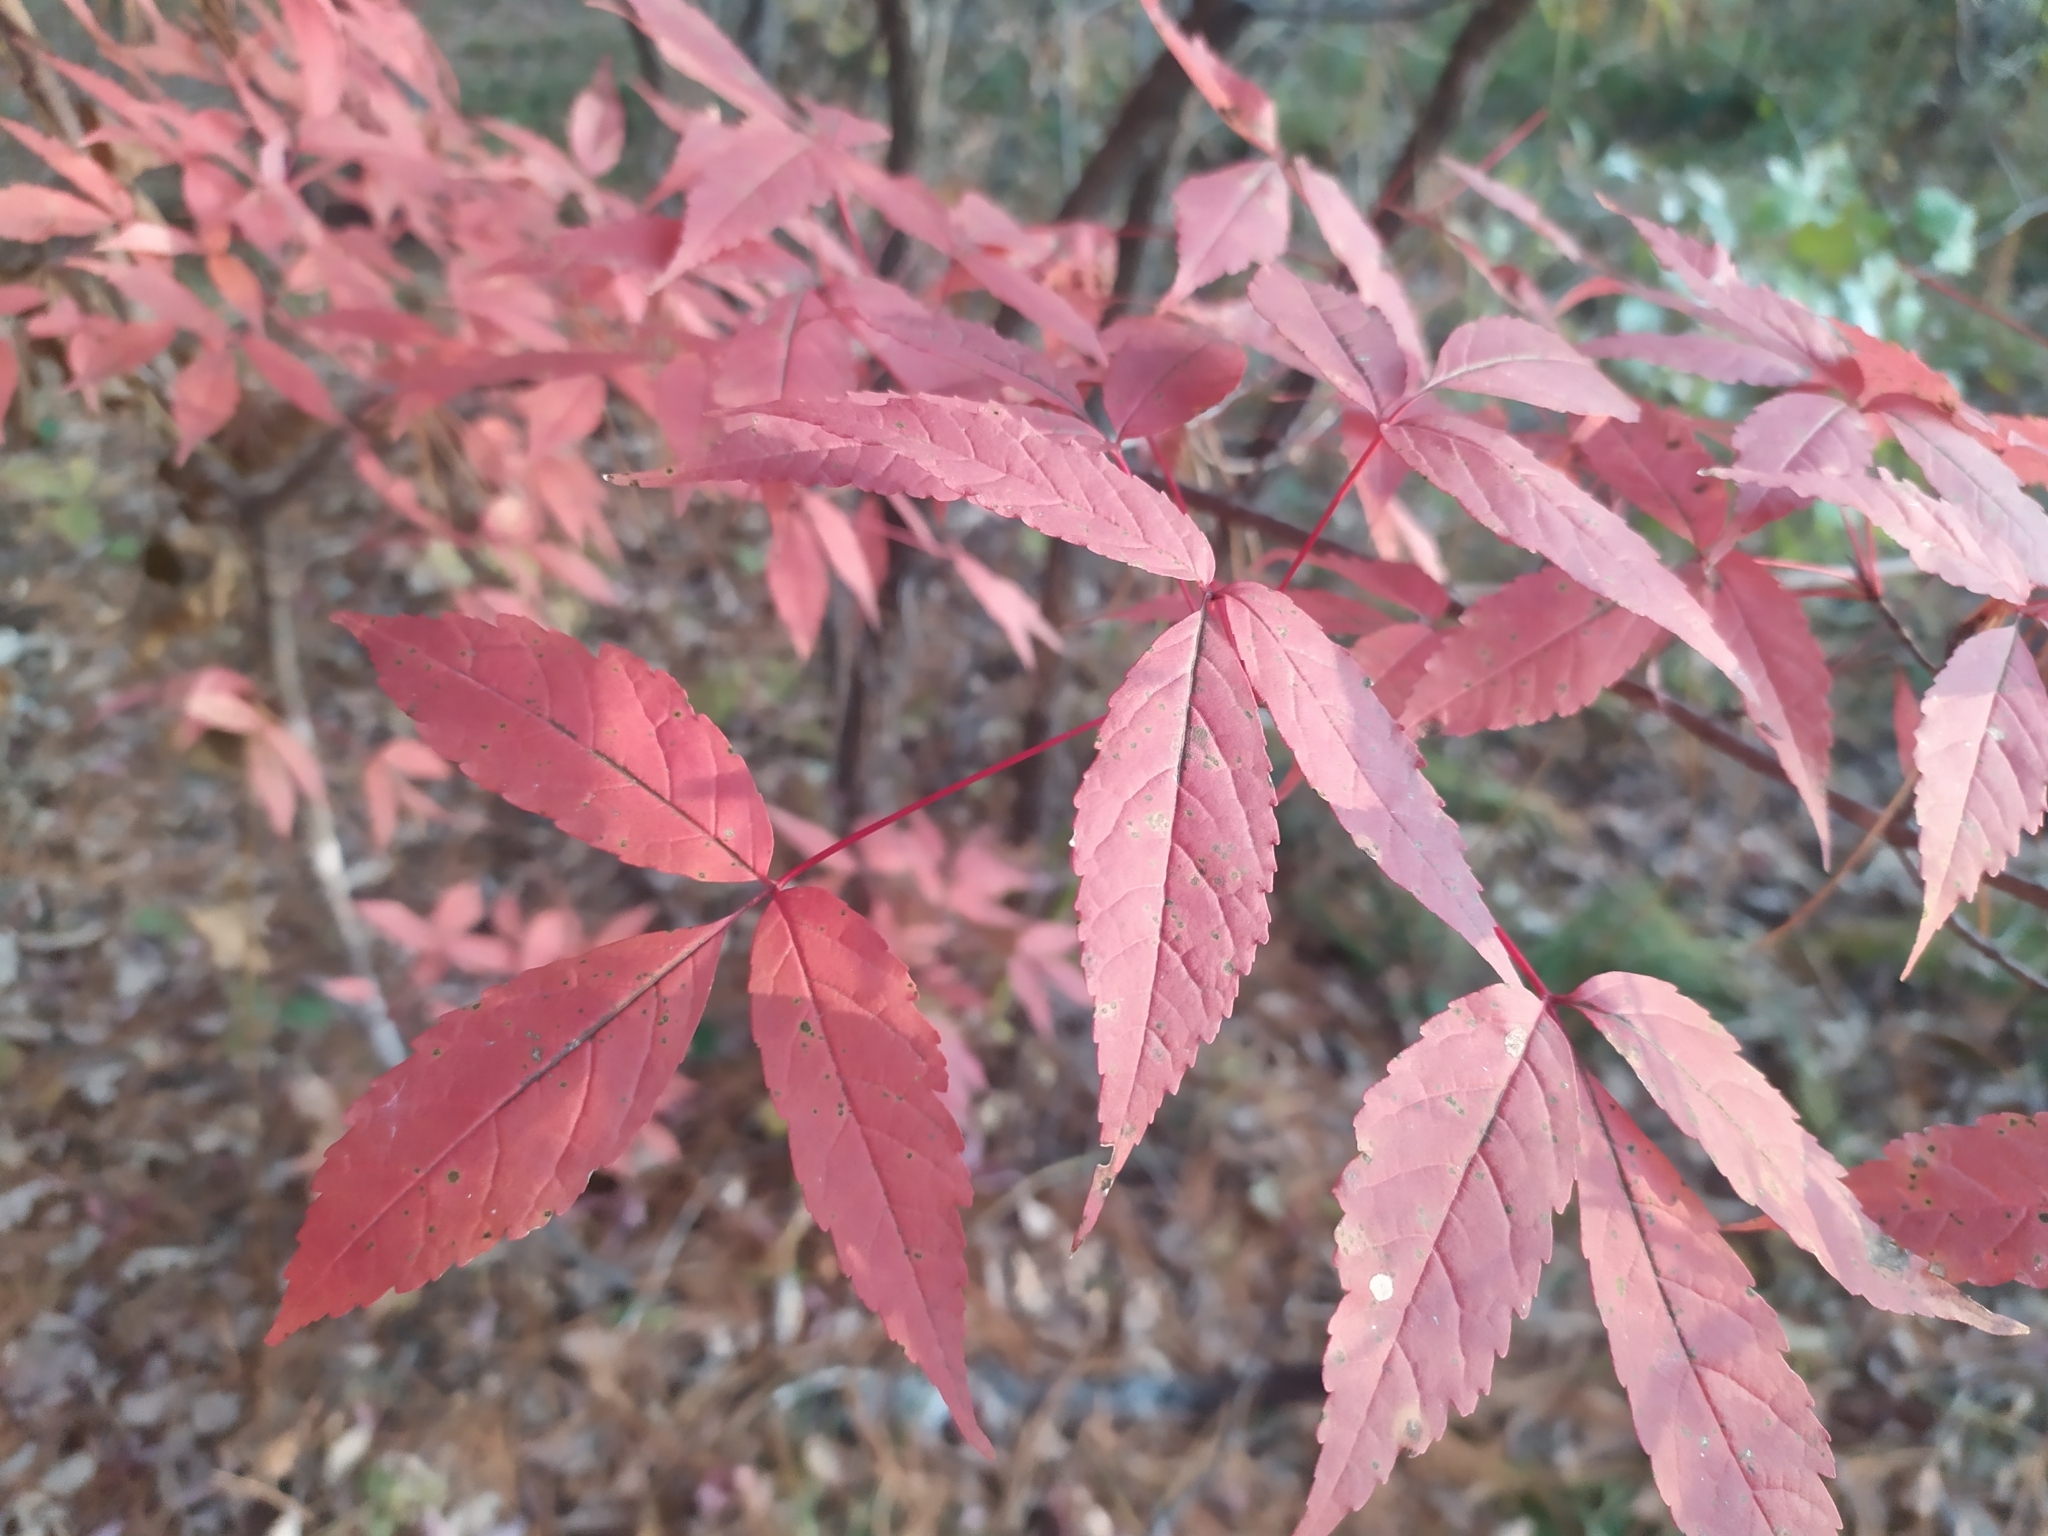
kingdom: Plantae
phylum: Tracheophyta
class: Magnoliopsida
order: Sapindales
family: Sapindaceae
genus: Acer
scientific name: Acer mandshuricum
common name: Manchurian maple
